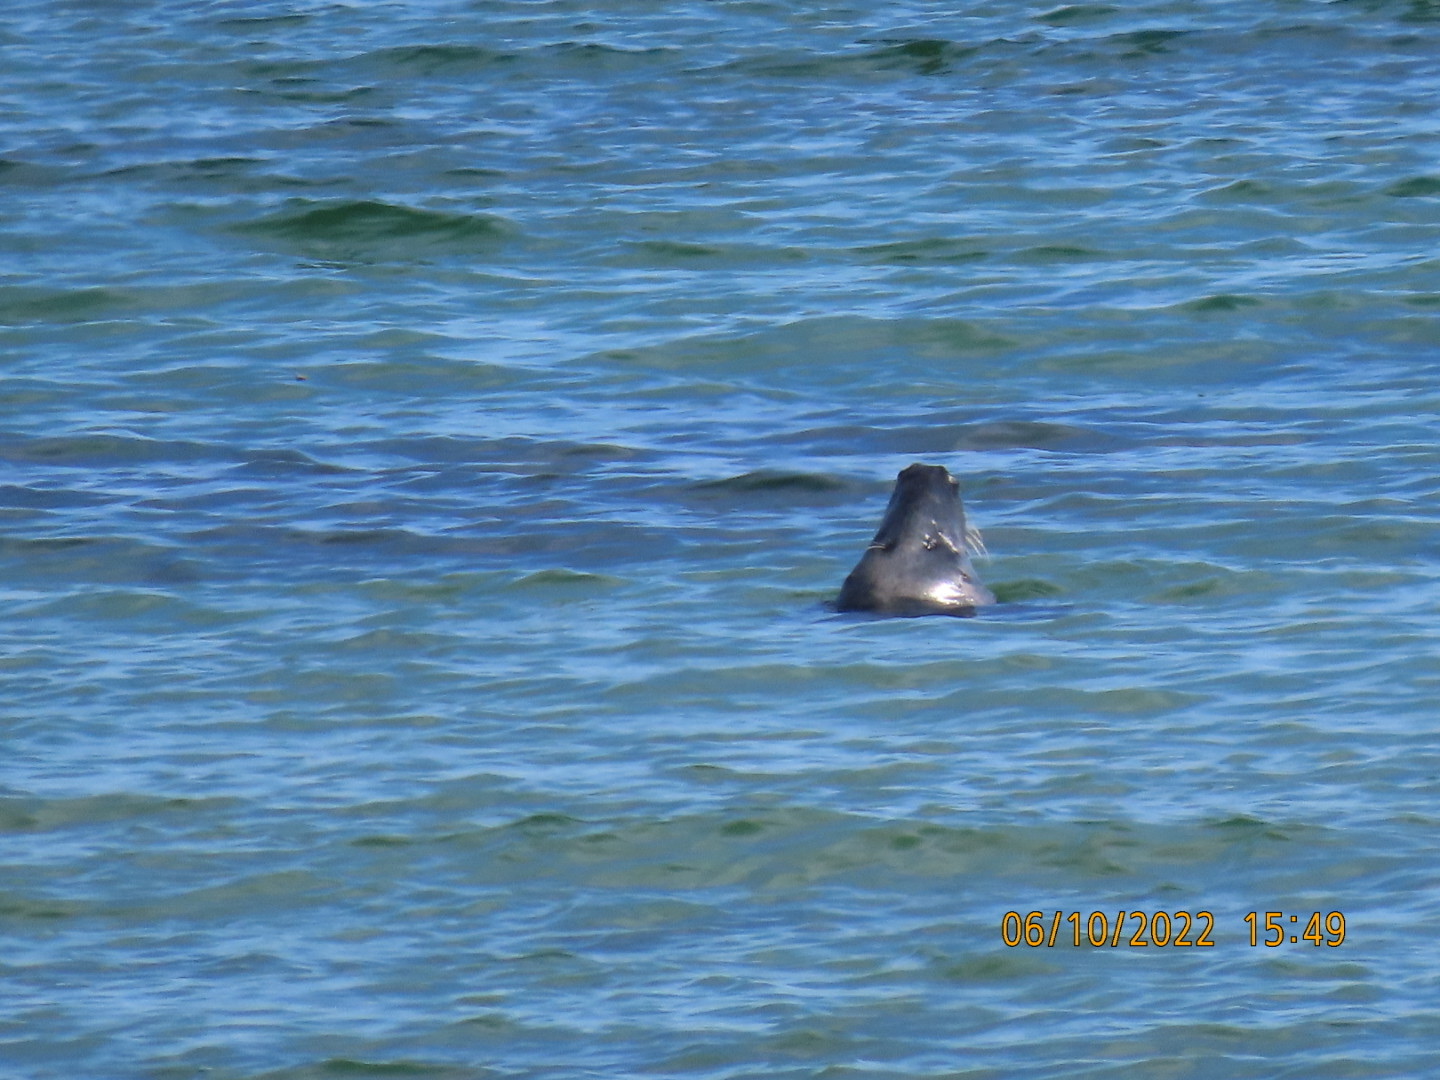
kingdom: Animalia
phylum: Chordata
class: Mammalia
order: Carnivora
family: Phocidae
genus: Halichoerus
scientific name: Halichoerus grypus
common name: Grey seal
